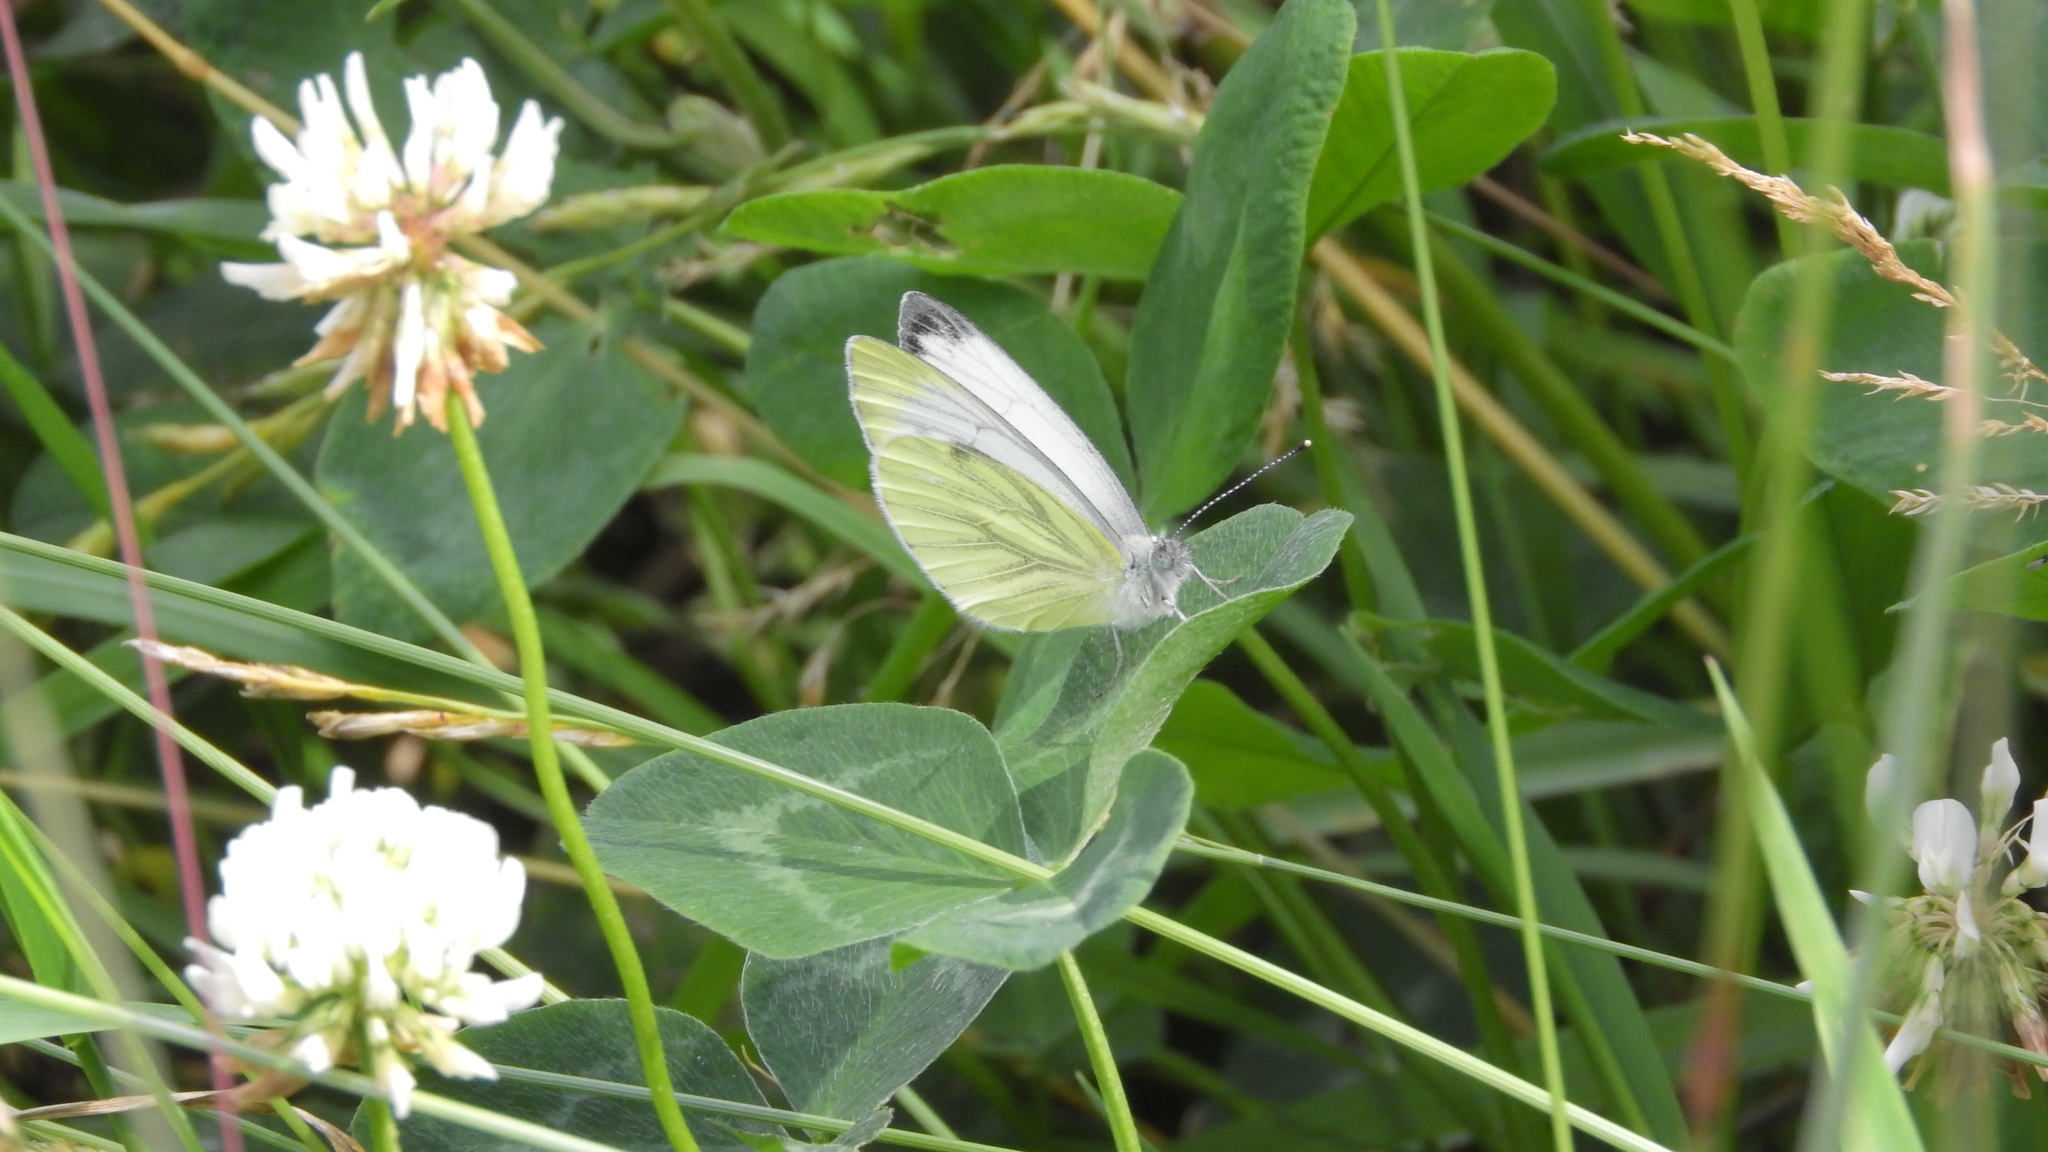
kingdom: Animalia
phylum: Arthropoda
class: Insecta
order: Lepidoptera
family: Pieridae
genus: Pieris
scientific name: Pieris napi
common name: Green-veined white
